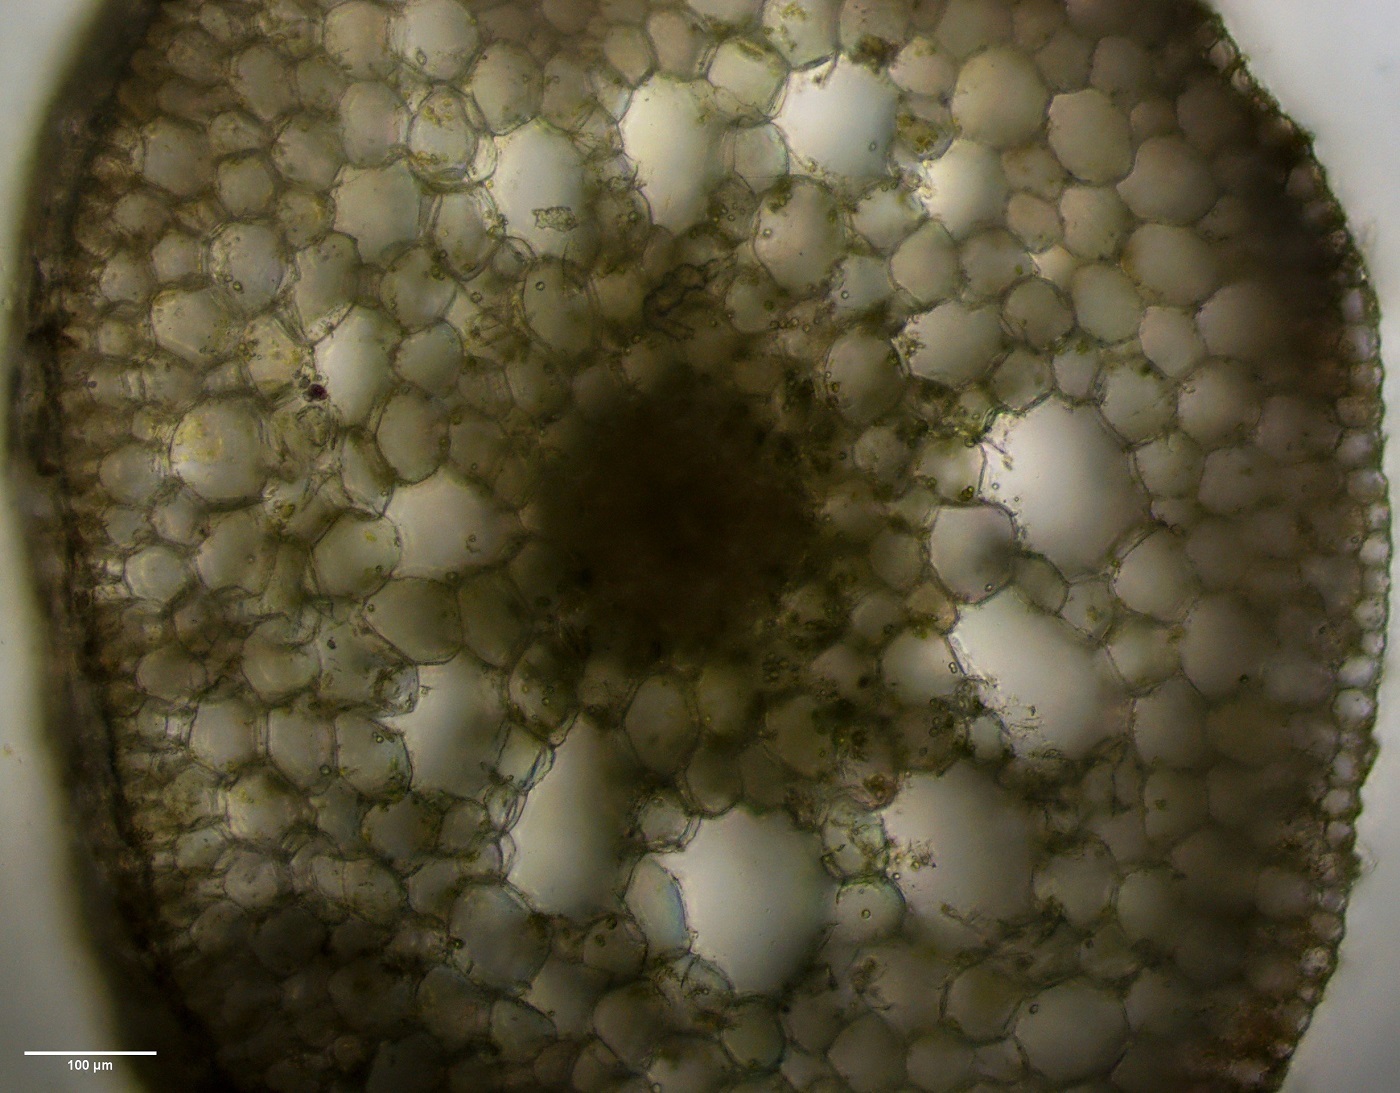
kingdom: Plantae
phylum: Tracheophyta
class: Liliopsida
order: Alismatales
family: Potamogetonaceae
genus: Stuckenia
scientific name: Stuckenia pectinata
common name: Sago pondweed
